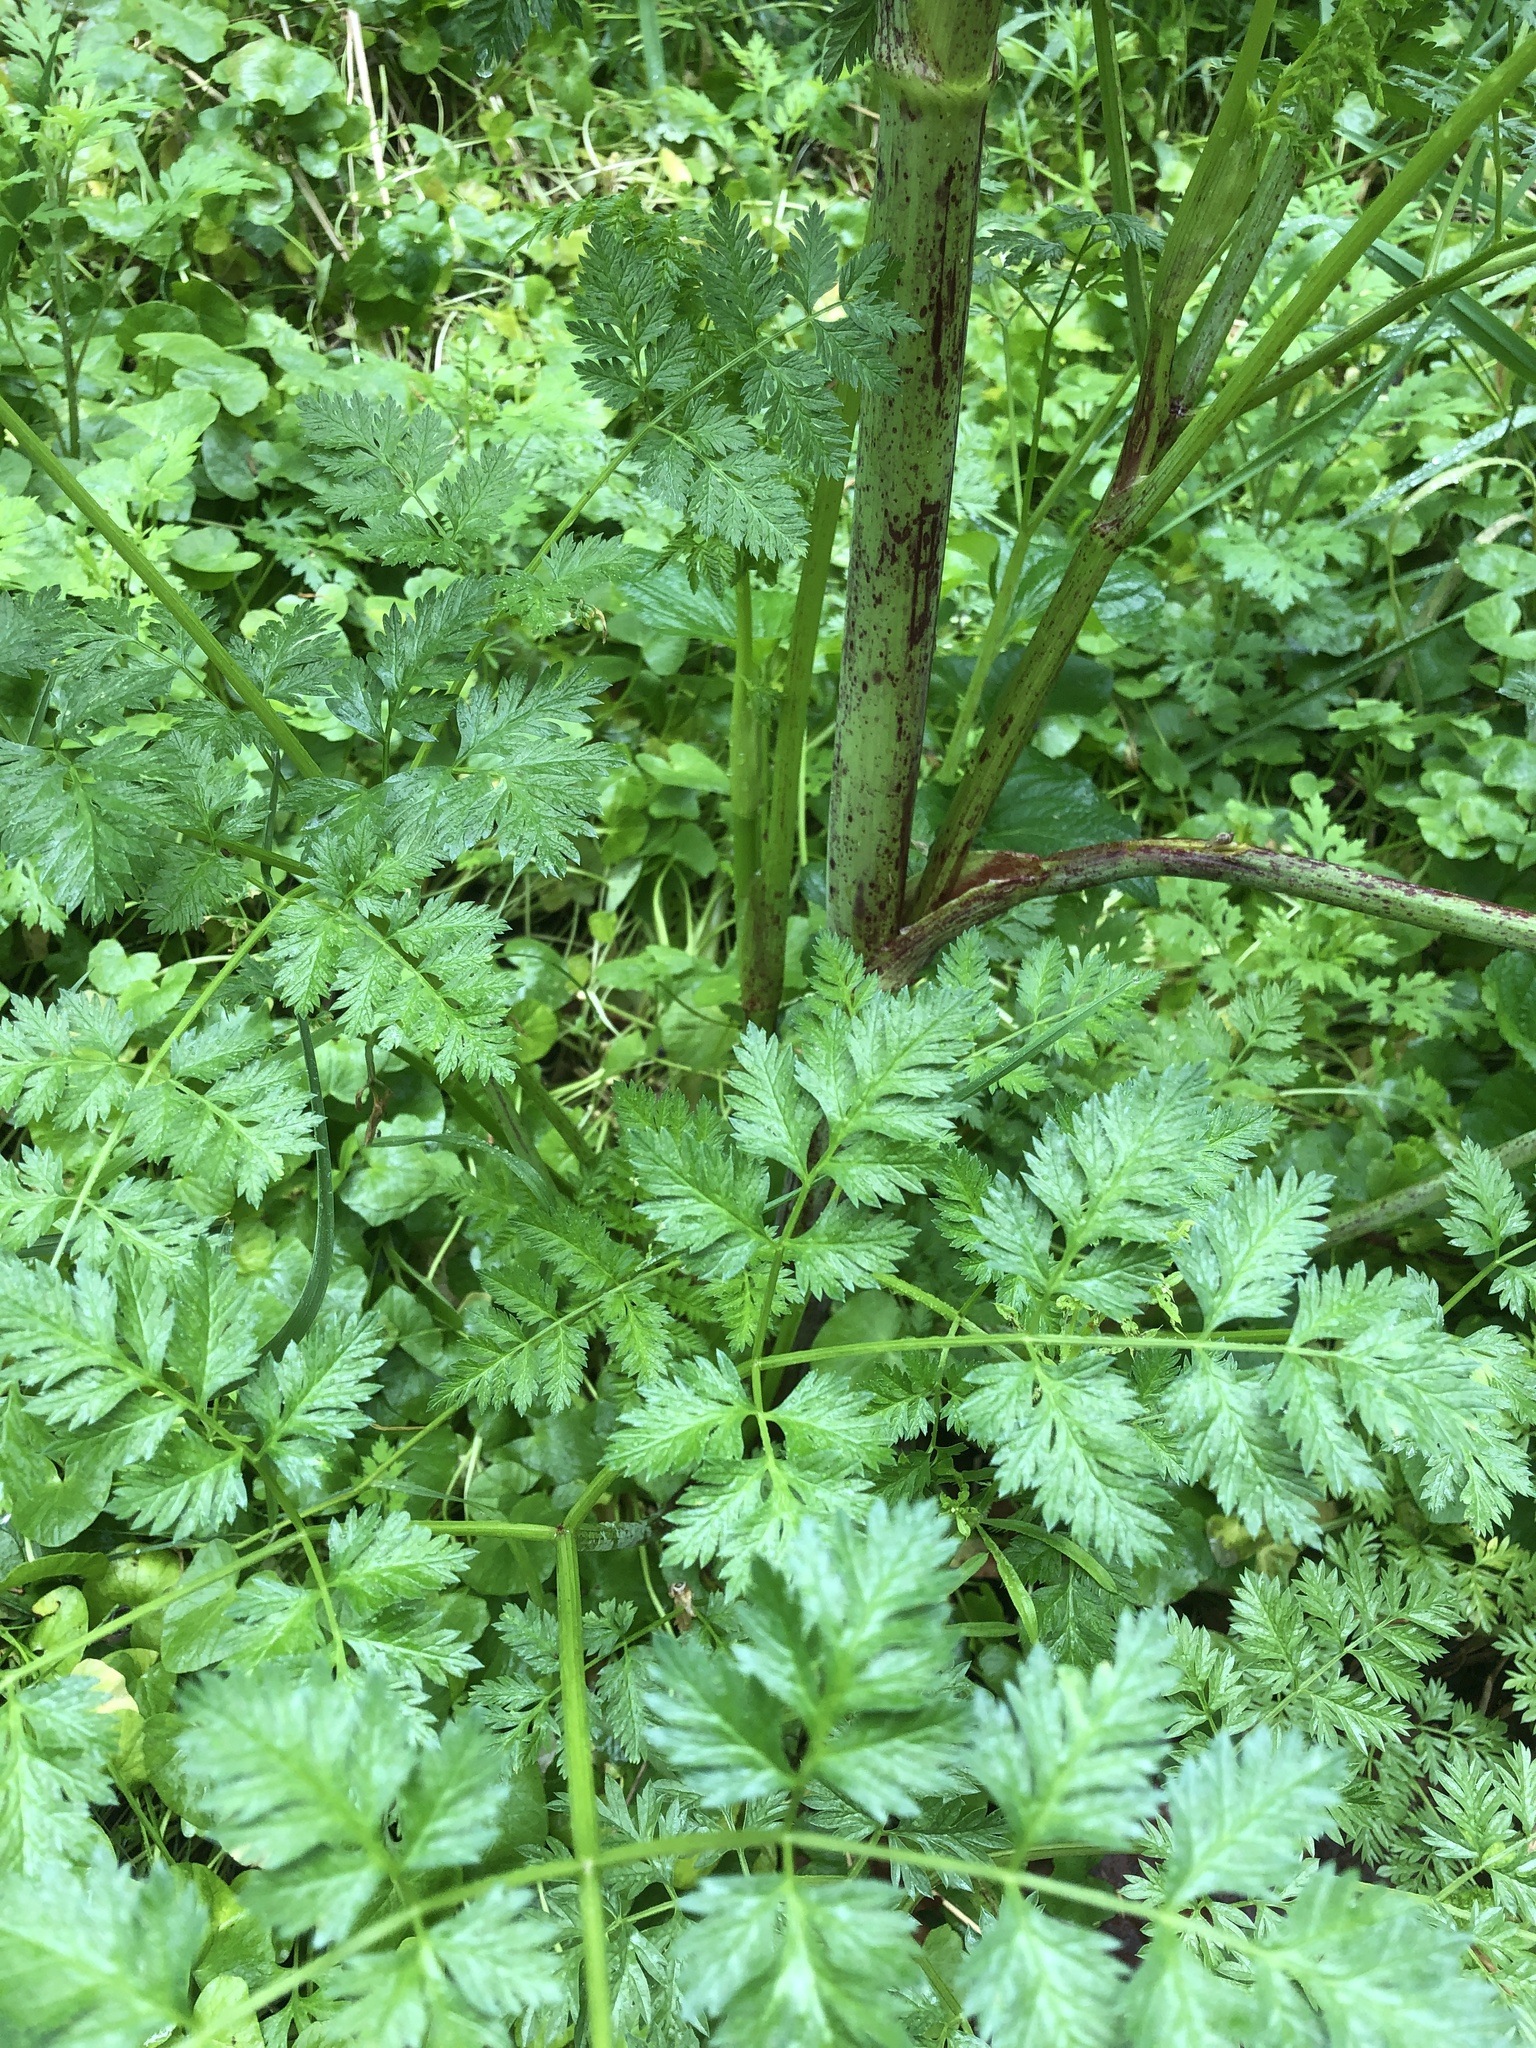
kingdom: Plantae
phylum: Tracheophyta
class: Magnoliopsida
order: Apiales
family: Apiaceae
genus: Conium
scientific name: Conium maculatum
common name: Hemlock
